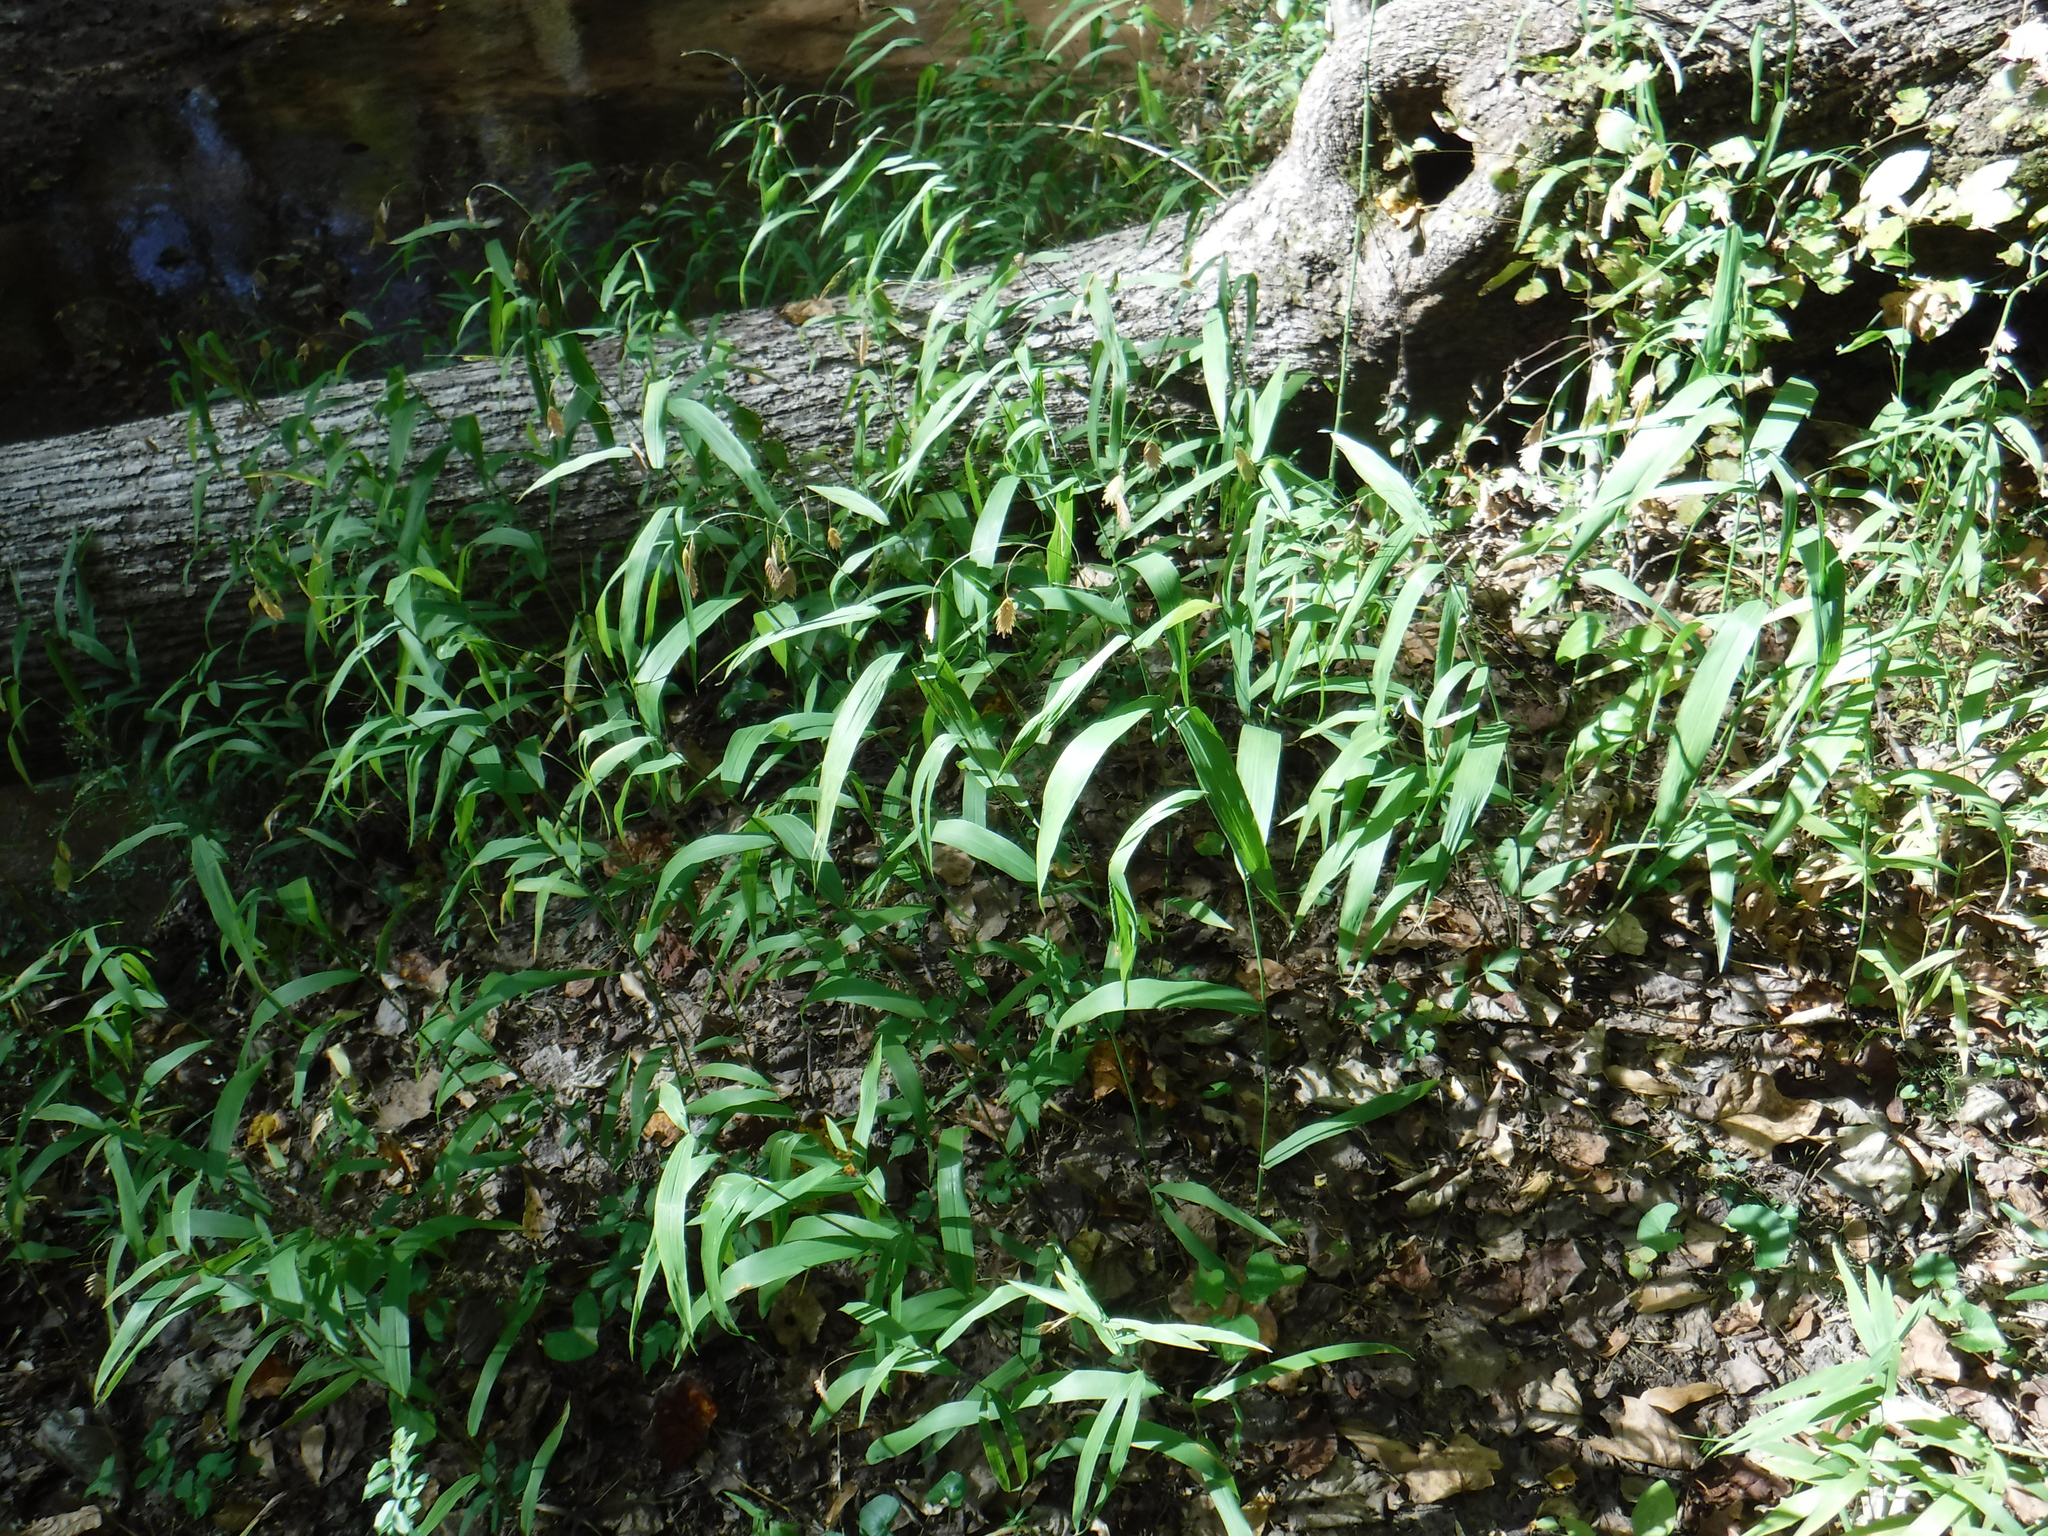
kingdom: Plantae
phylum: Tracheophyta
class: Liliopsida
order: Poales
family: Poaceae
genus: Chasmanthium
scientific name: Chasmanthium latifolium
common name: Broad-leaved chasmanthium
